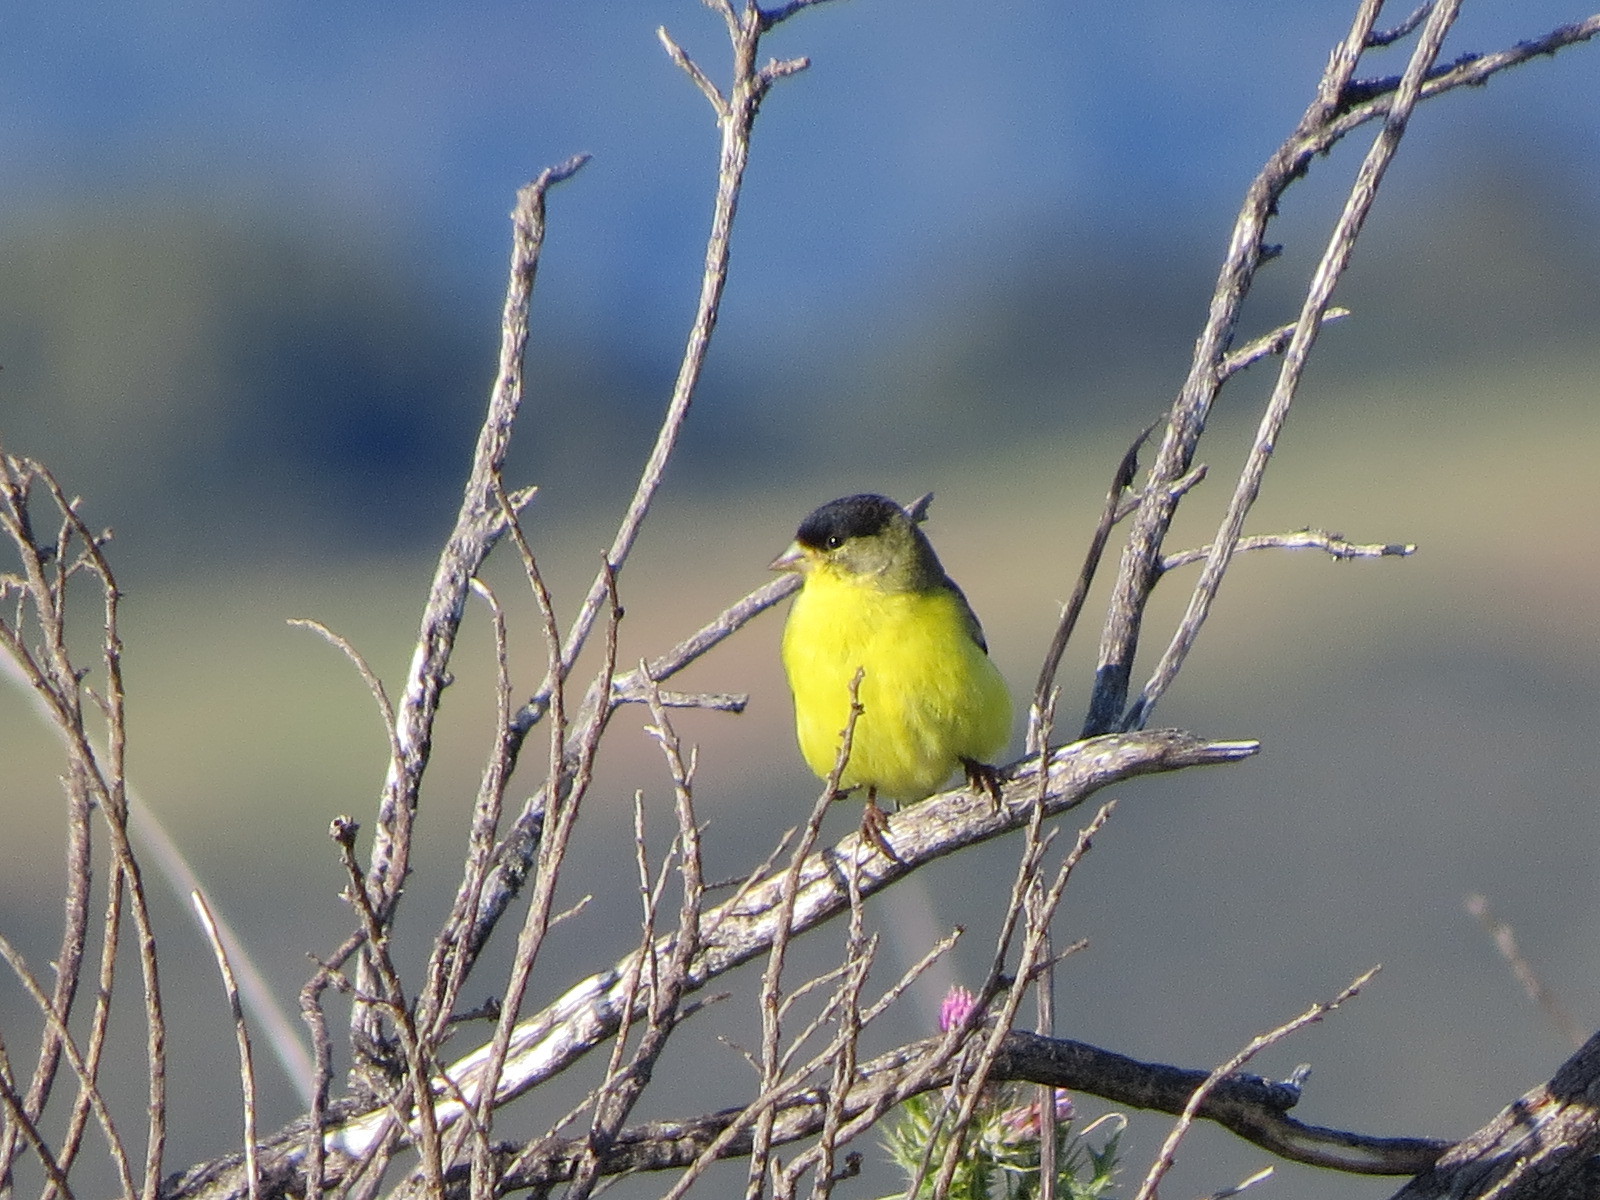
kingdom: Animalia
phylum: Chordata
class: Aves
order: Passeriformes
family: Fringillidae
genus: Spinus
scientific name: Spinus psaltria
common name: Lesser goldfinch
